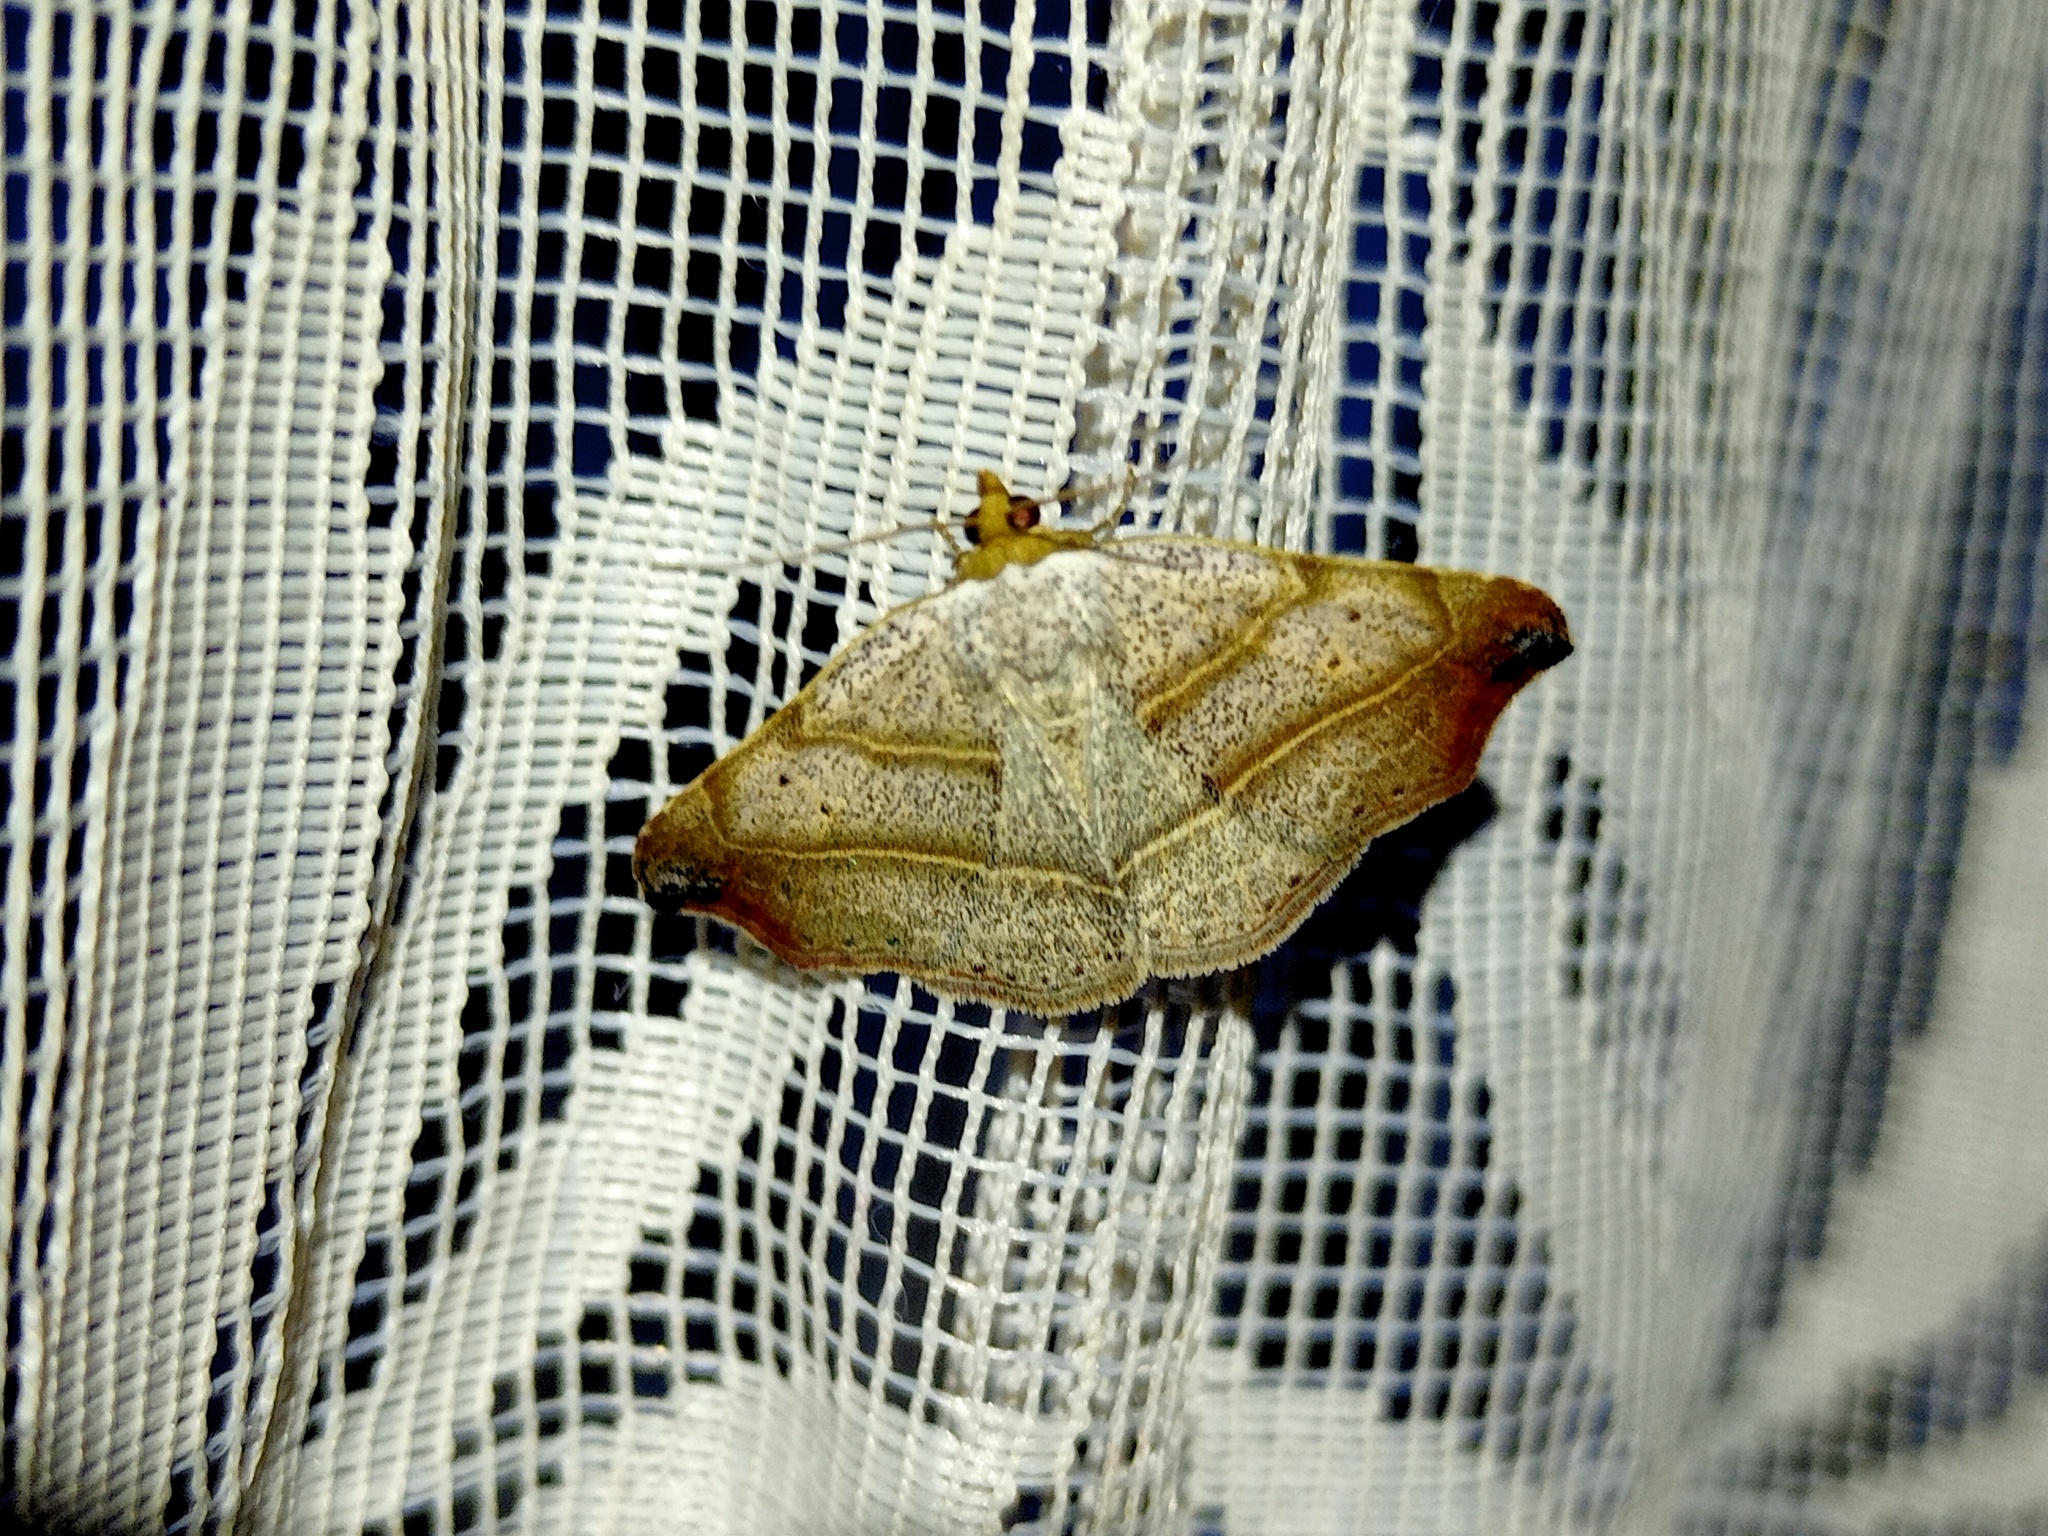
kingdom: Animalia
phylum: Arthropoda
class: Insecta
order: Lepidoptera
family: Erebidae
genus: Laspeyria
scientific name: Laspeyria flexula
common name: Beautiful hook-tip
